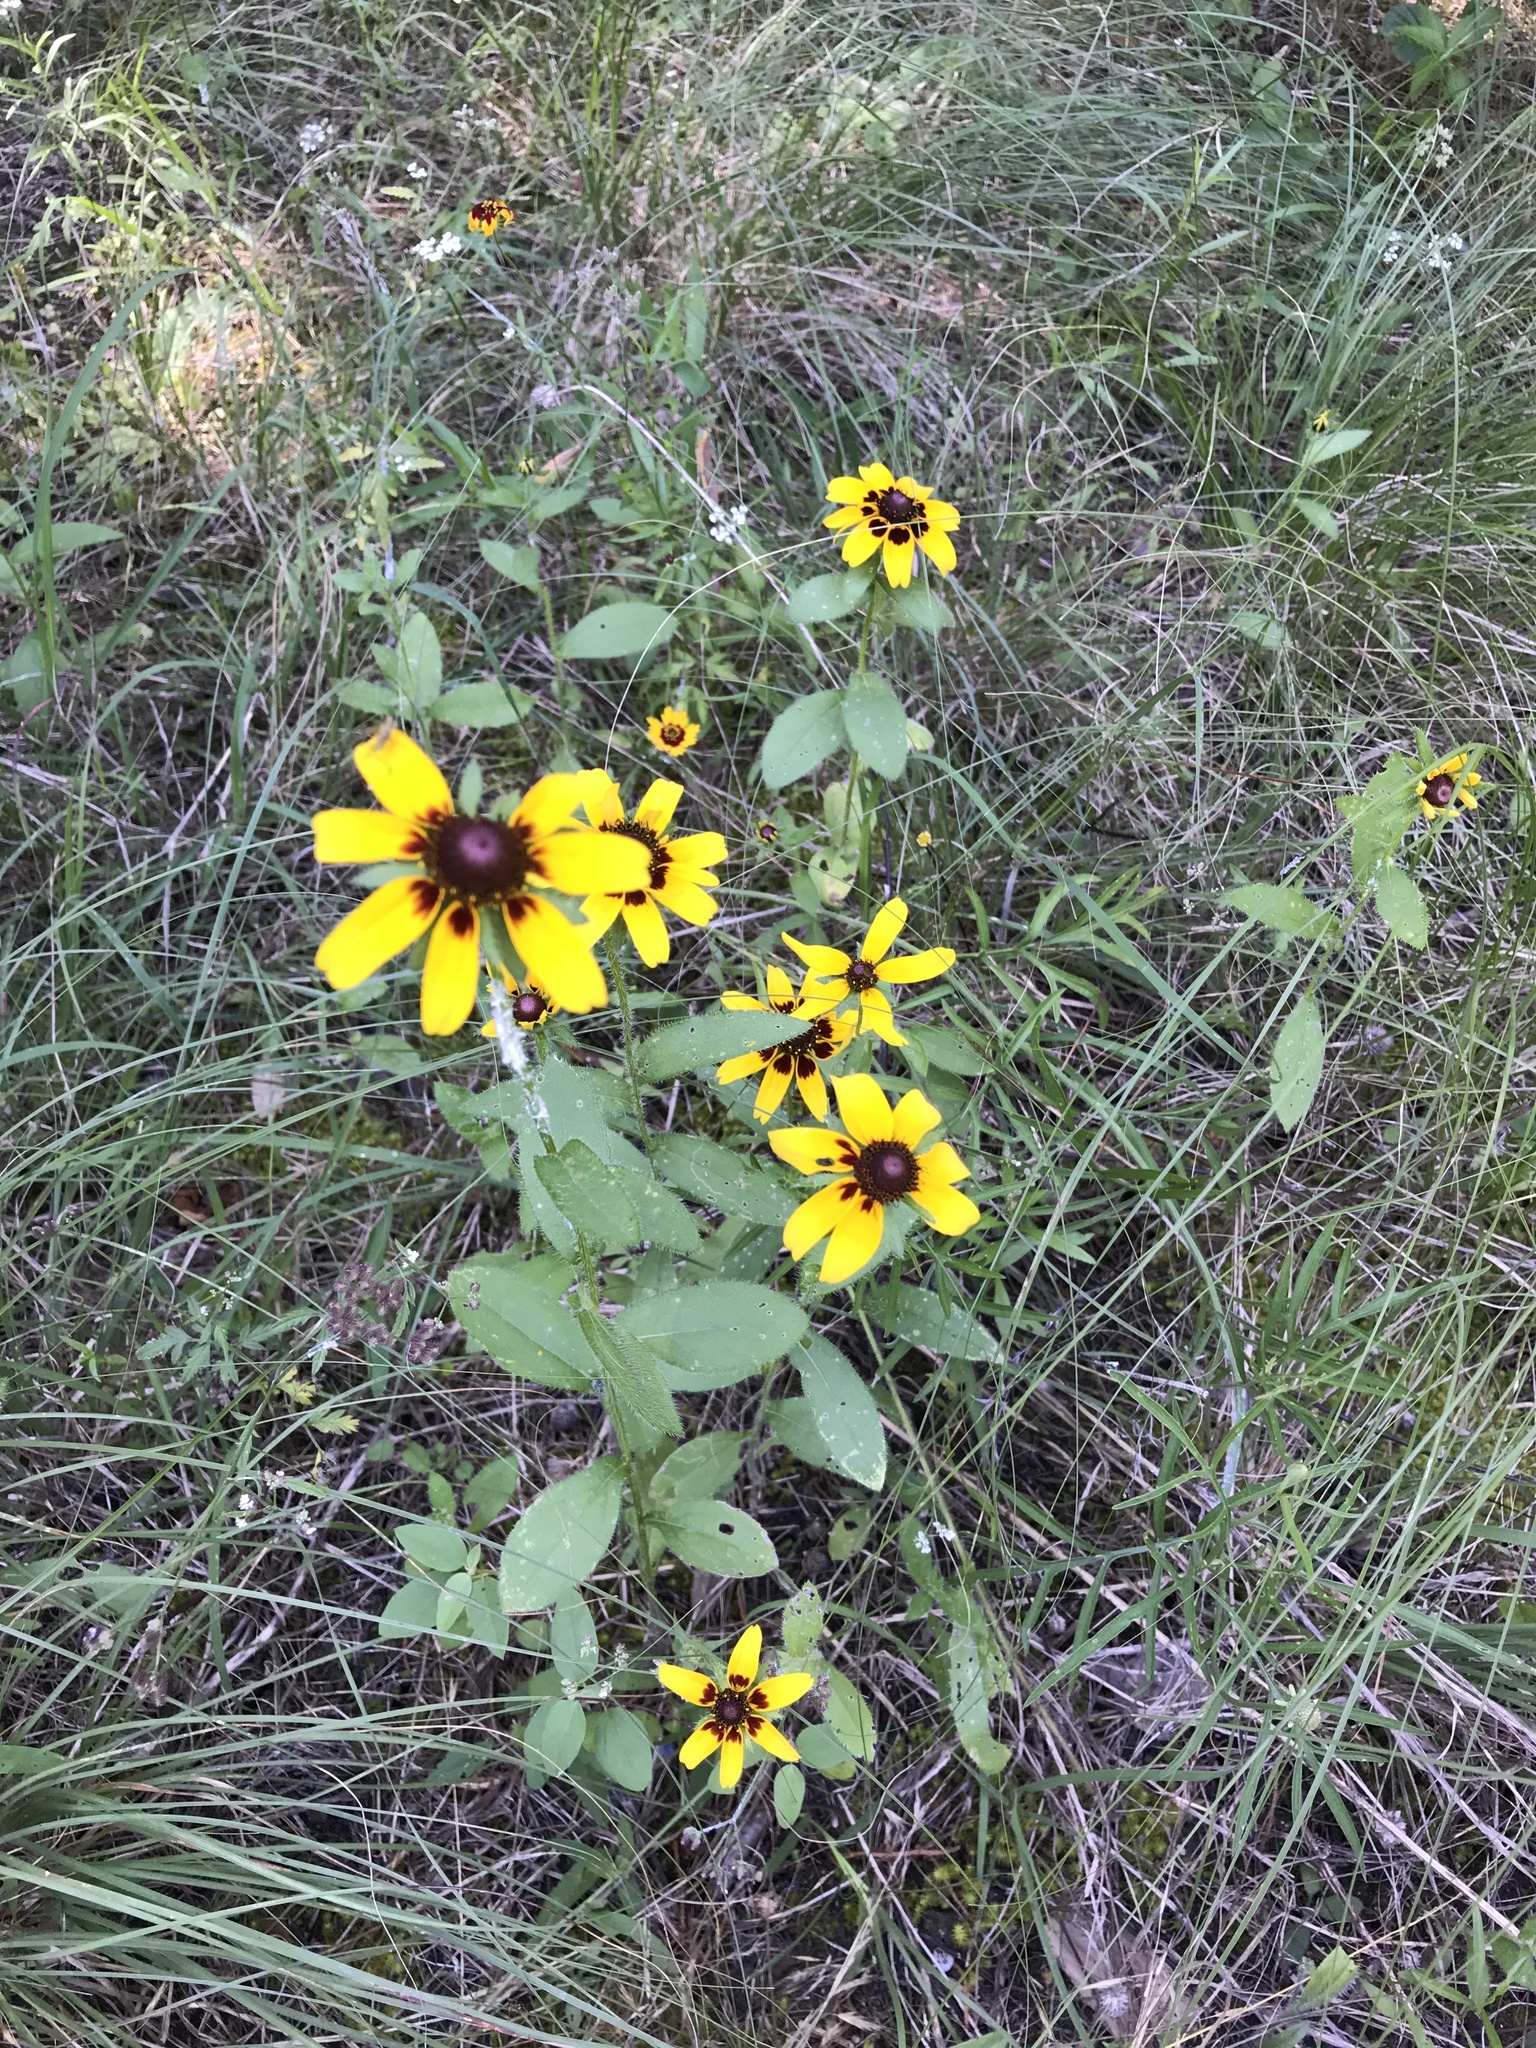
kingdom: Plantae
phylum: Tracheophyta
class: Magnoliopsida
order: Asterales
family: Asteraceae
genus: Rudbeckia
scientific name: Rudbeckia hirta
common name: Black-eyed-susan
